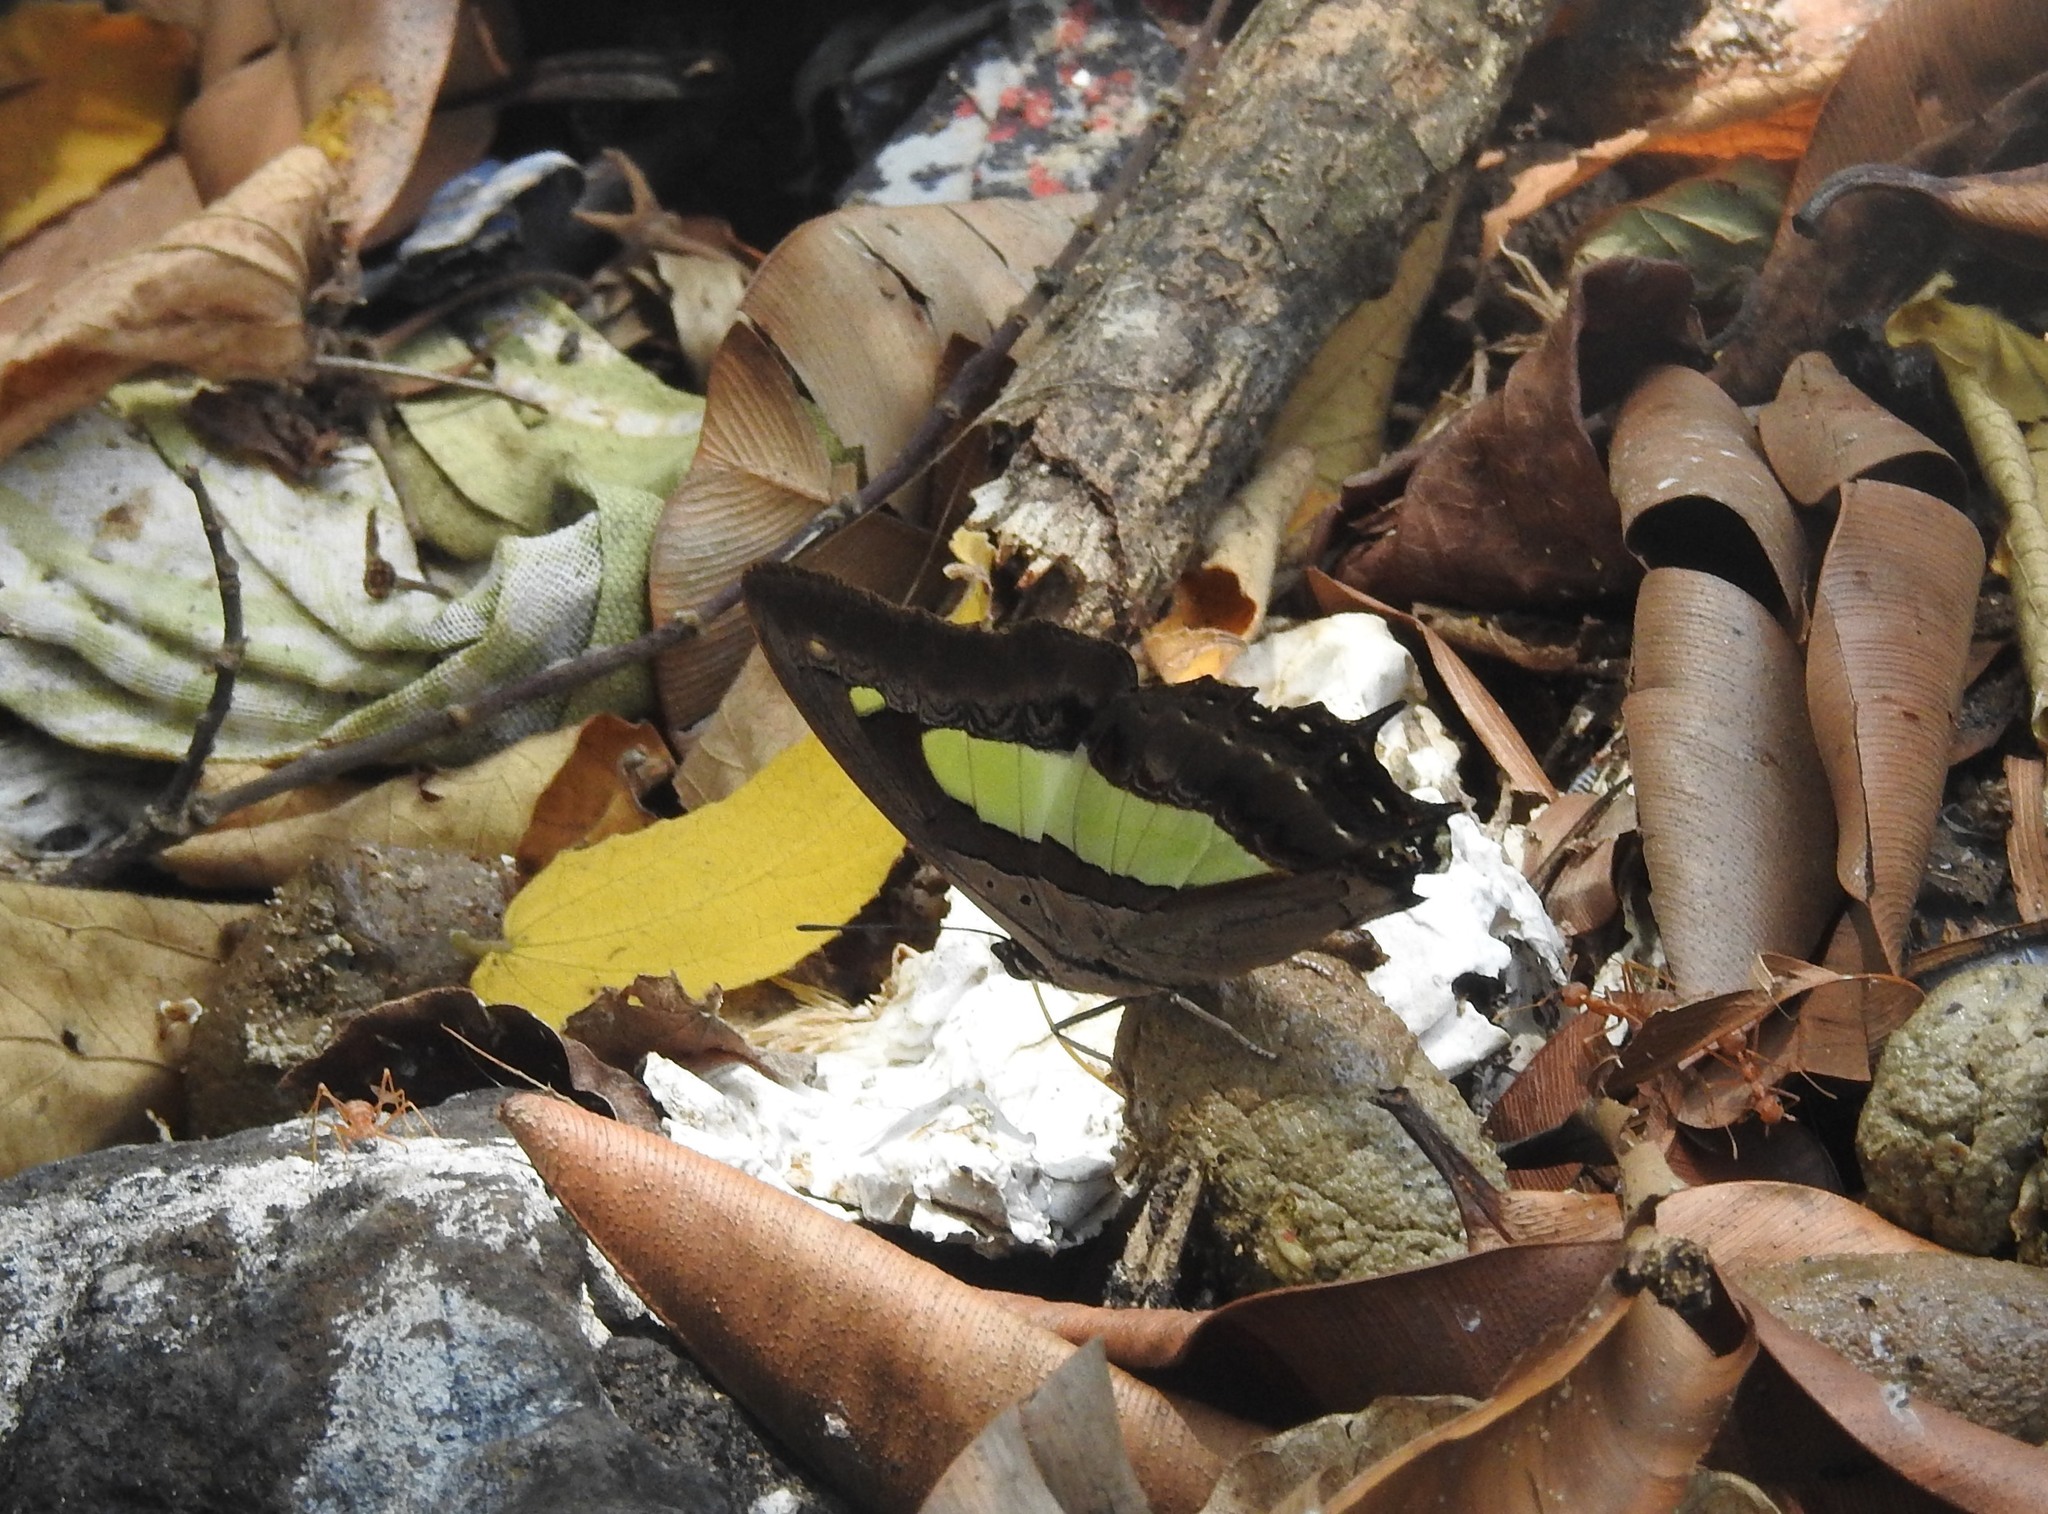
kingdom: Animalia
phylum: Arthropoda
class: Insecta
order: Lepidoptera
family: Nymphalidae
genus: Polyura
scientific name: Polyura
